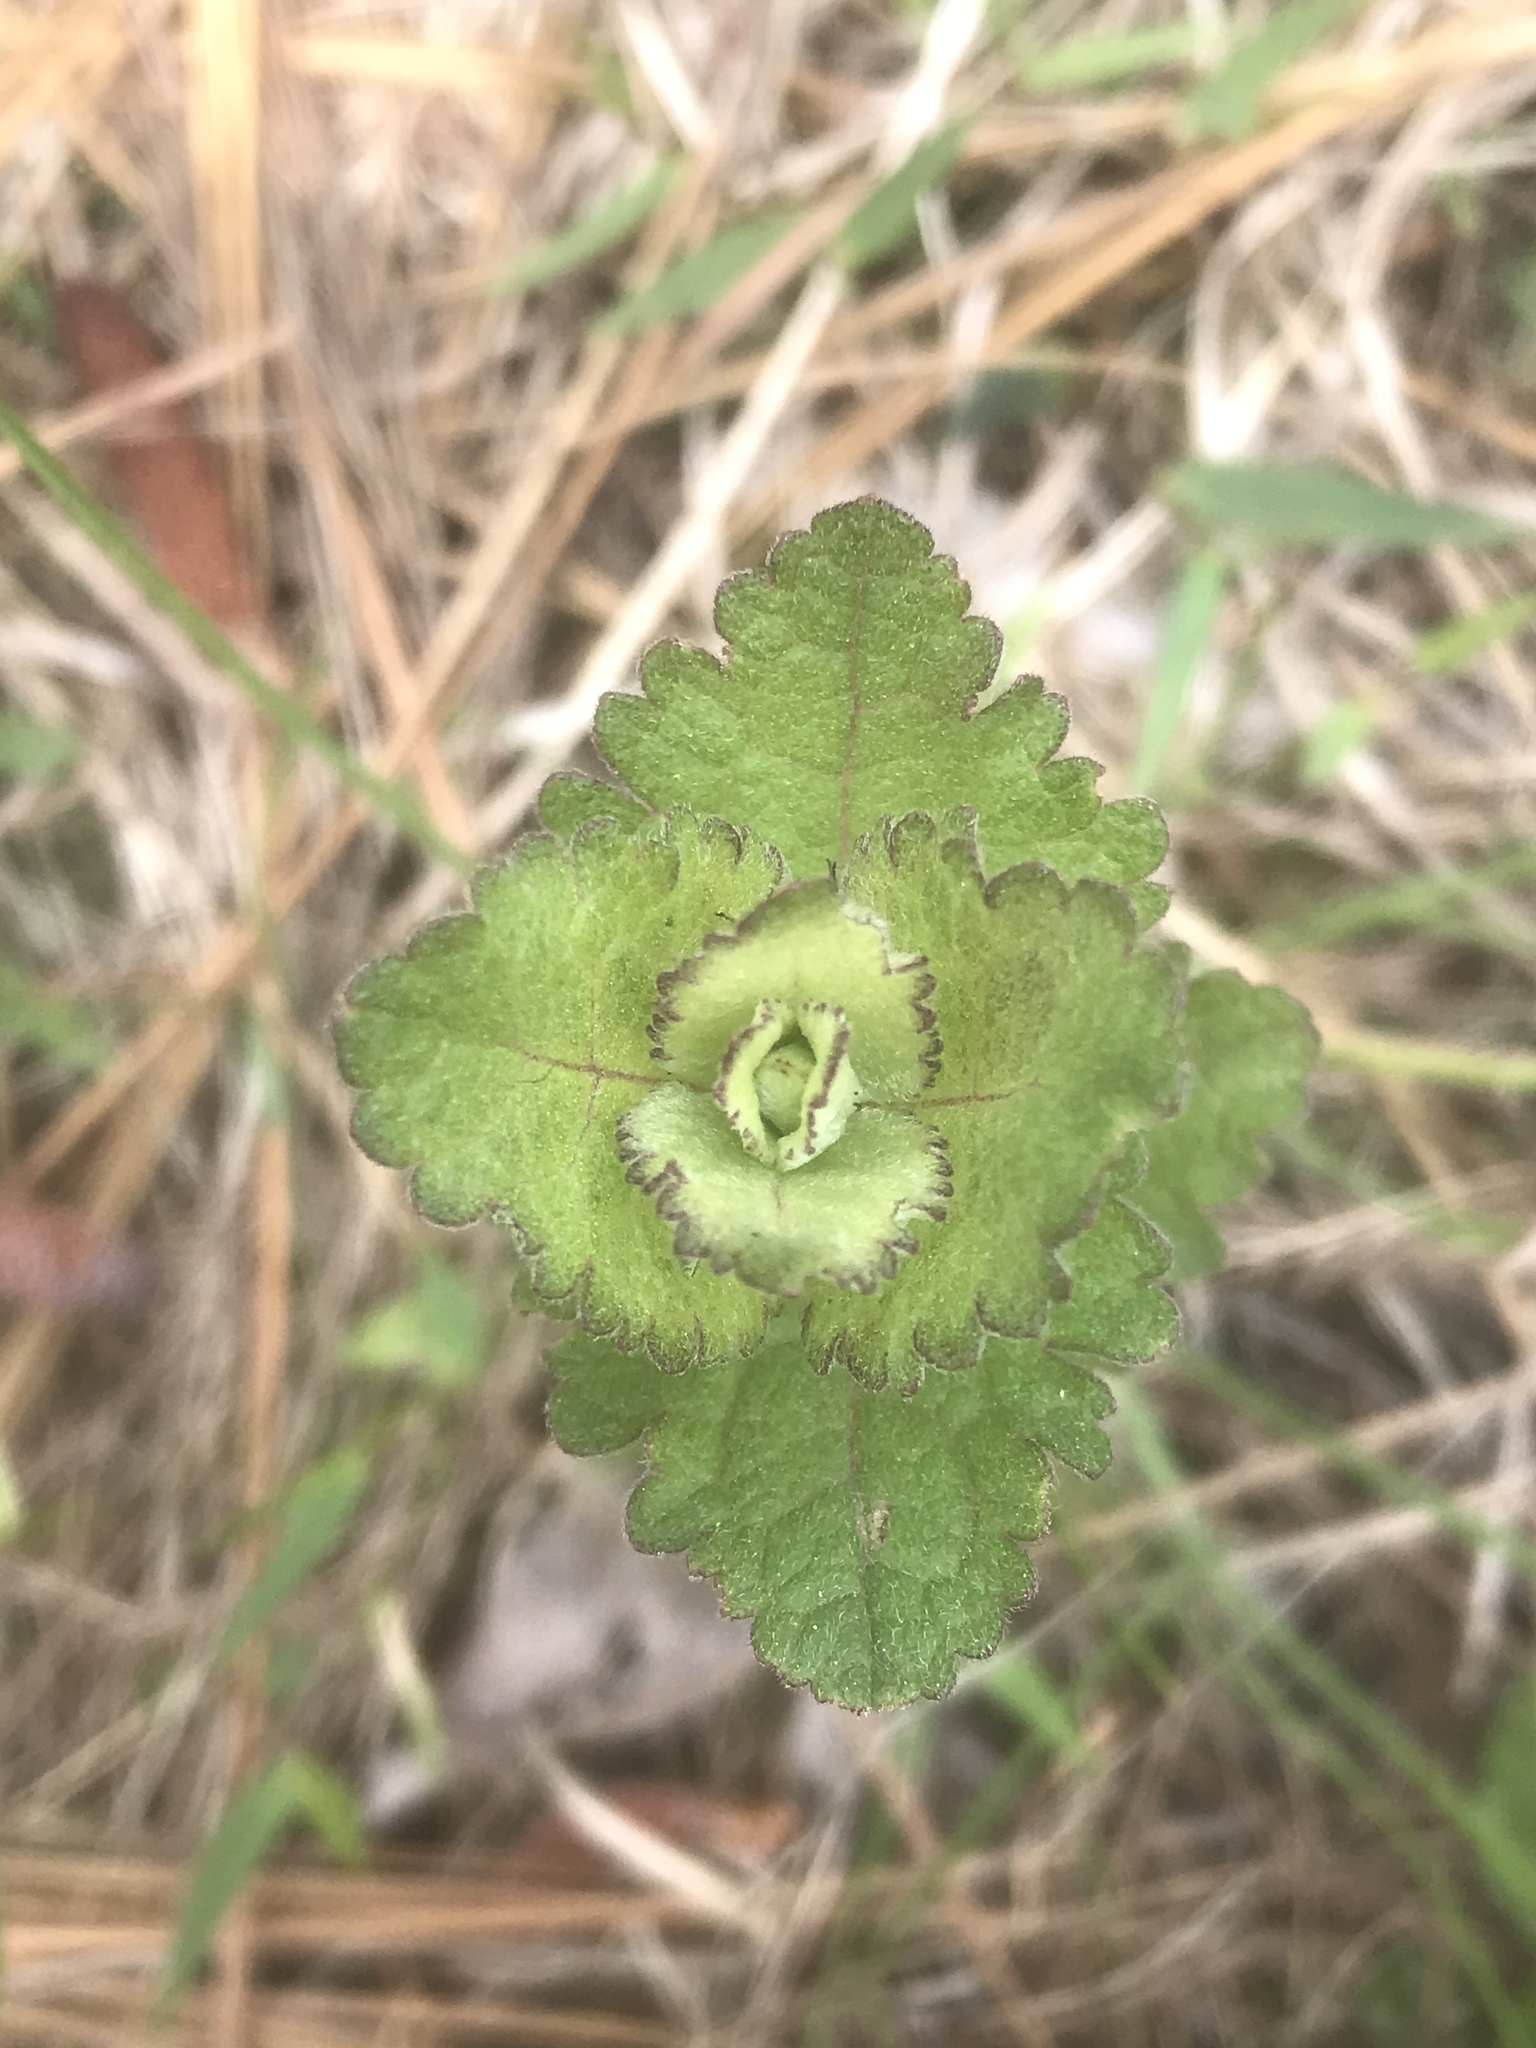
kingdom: Plantae
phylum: Tracheophyta
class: Magnoliopsida
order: Asterales
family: Asteraceae
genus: Eupatorium
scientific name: Eupatorium rotundifolium
